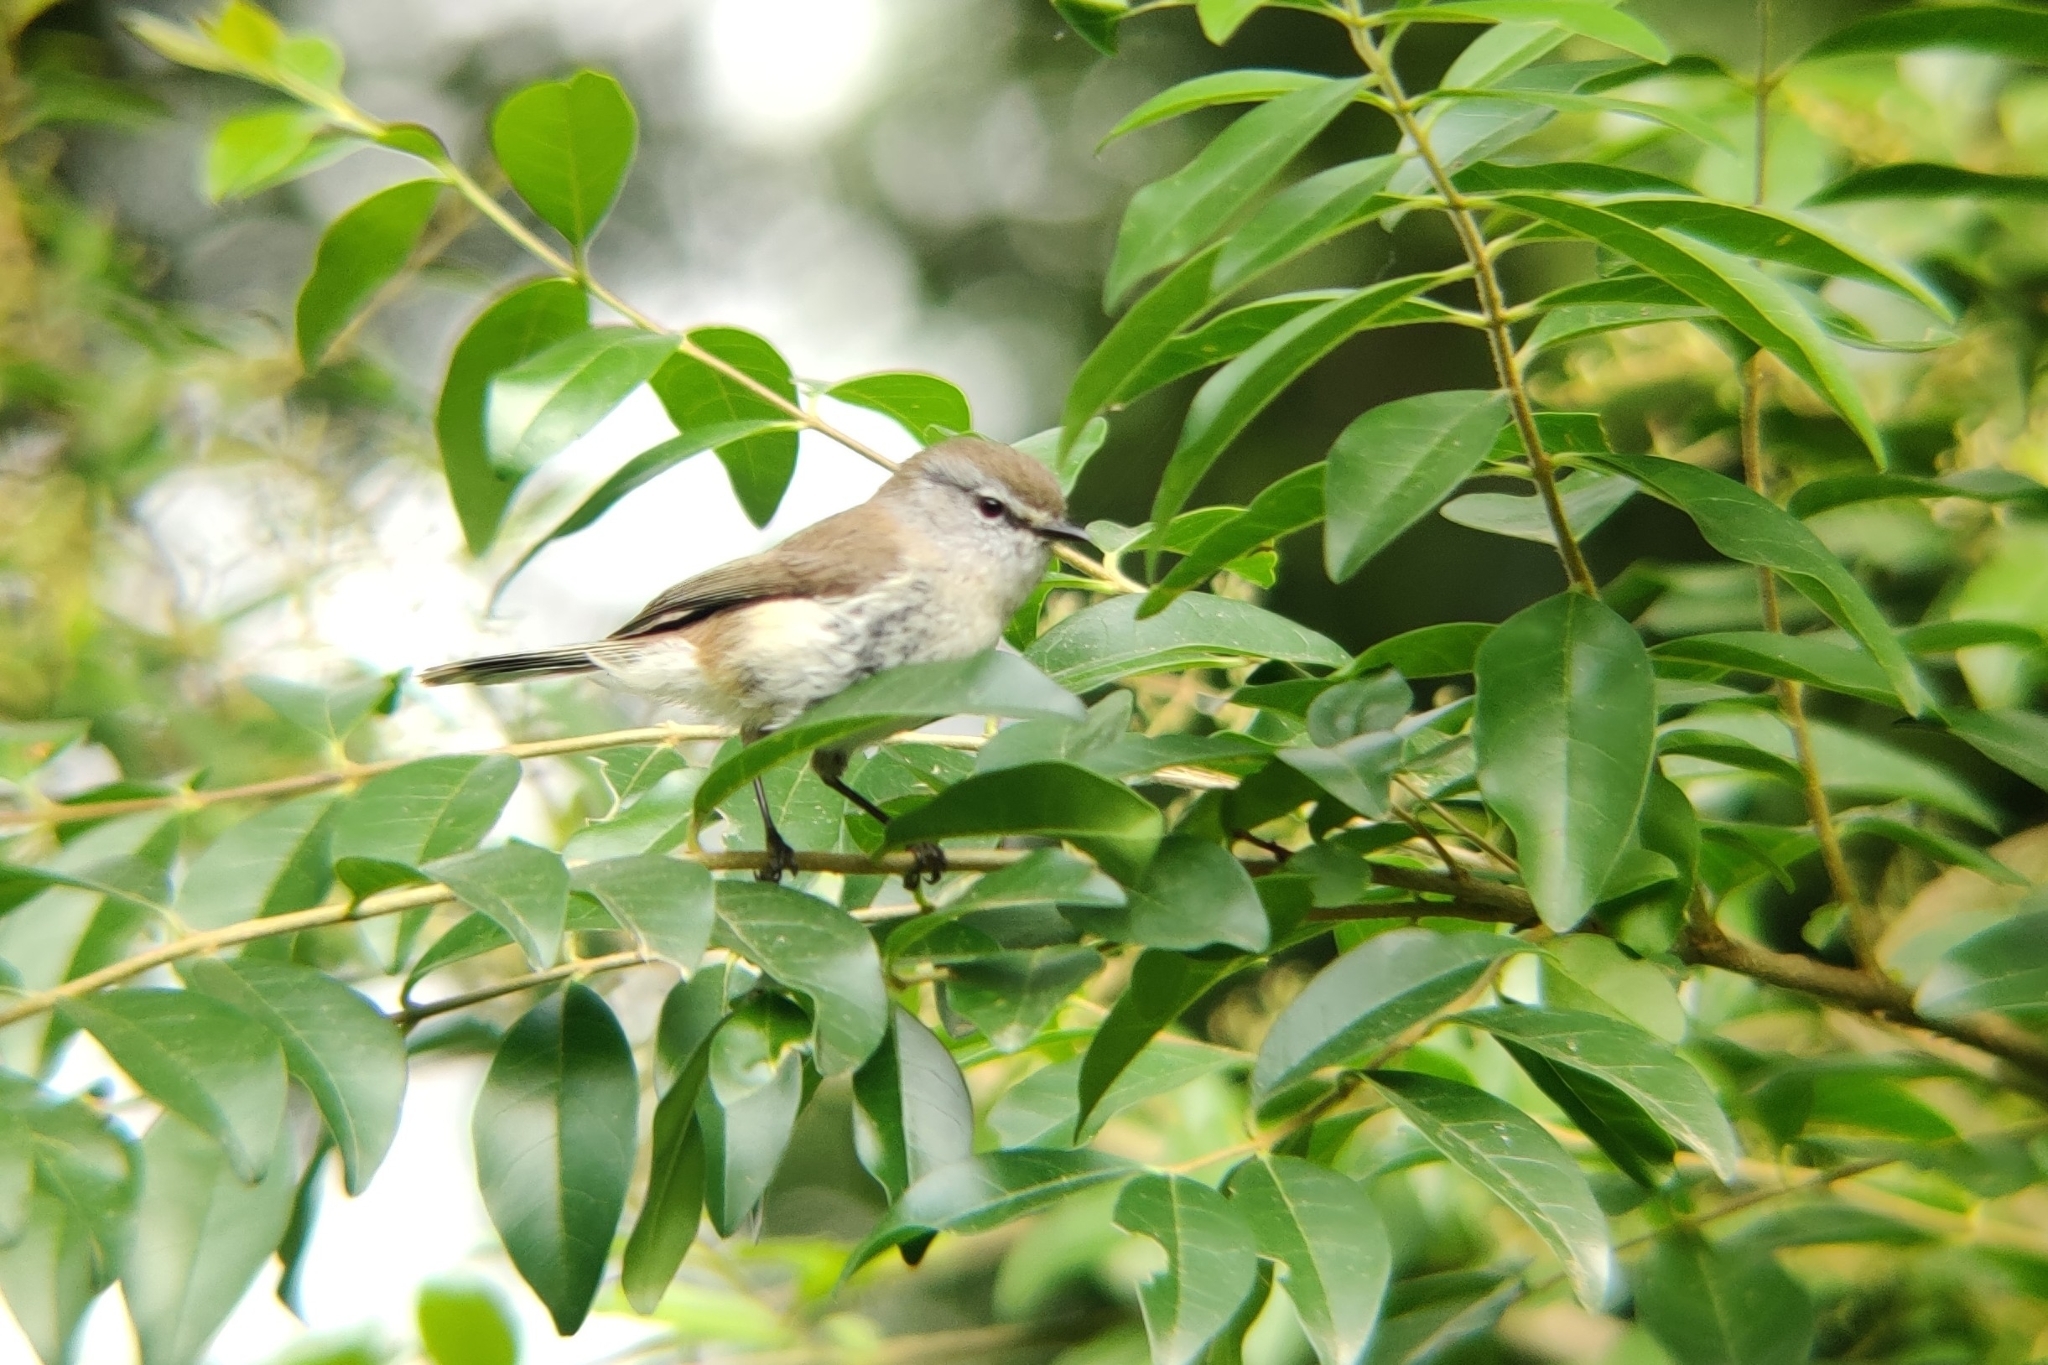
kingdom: Animalia
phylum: Chordata
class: Aves
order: Passeriformes
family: Acanthizidae
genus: Gerygone
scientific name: Gerygone mouki
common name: Brown gerygone
